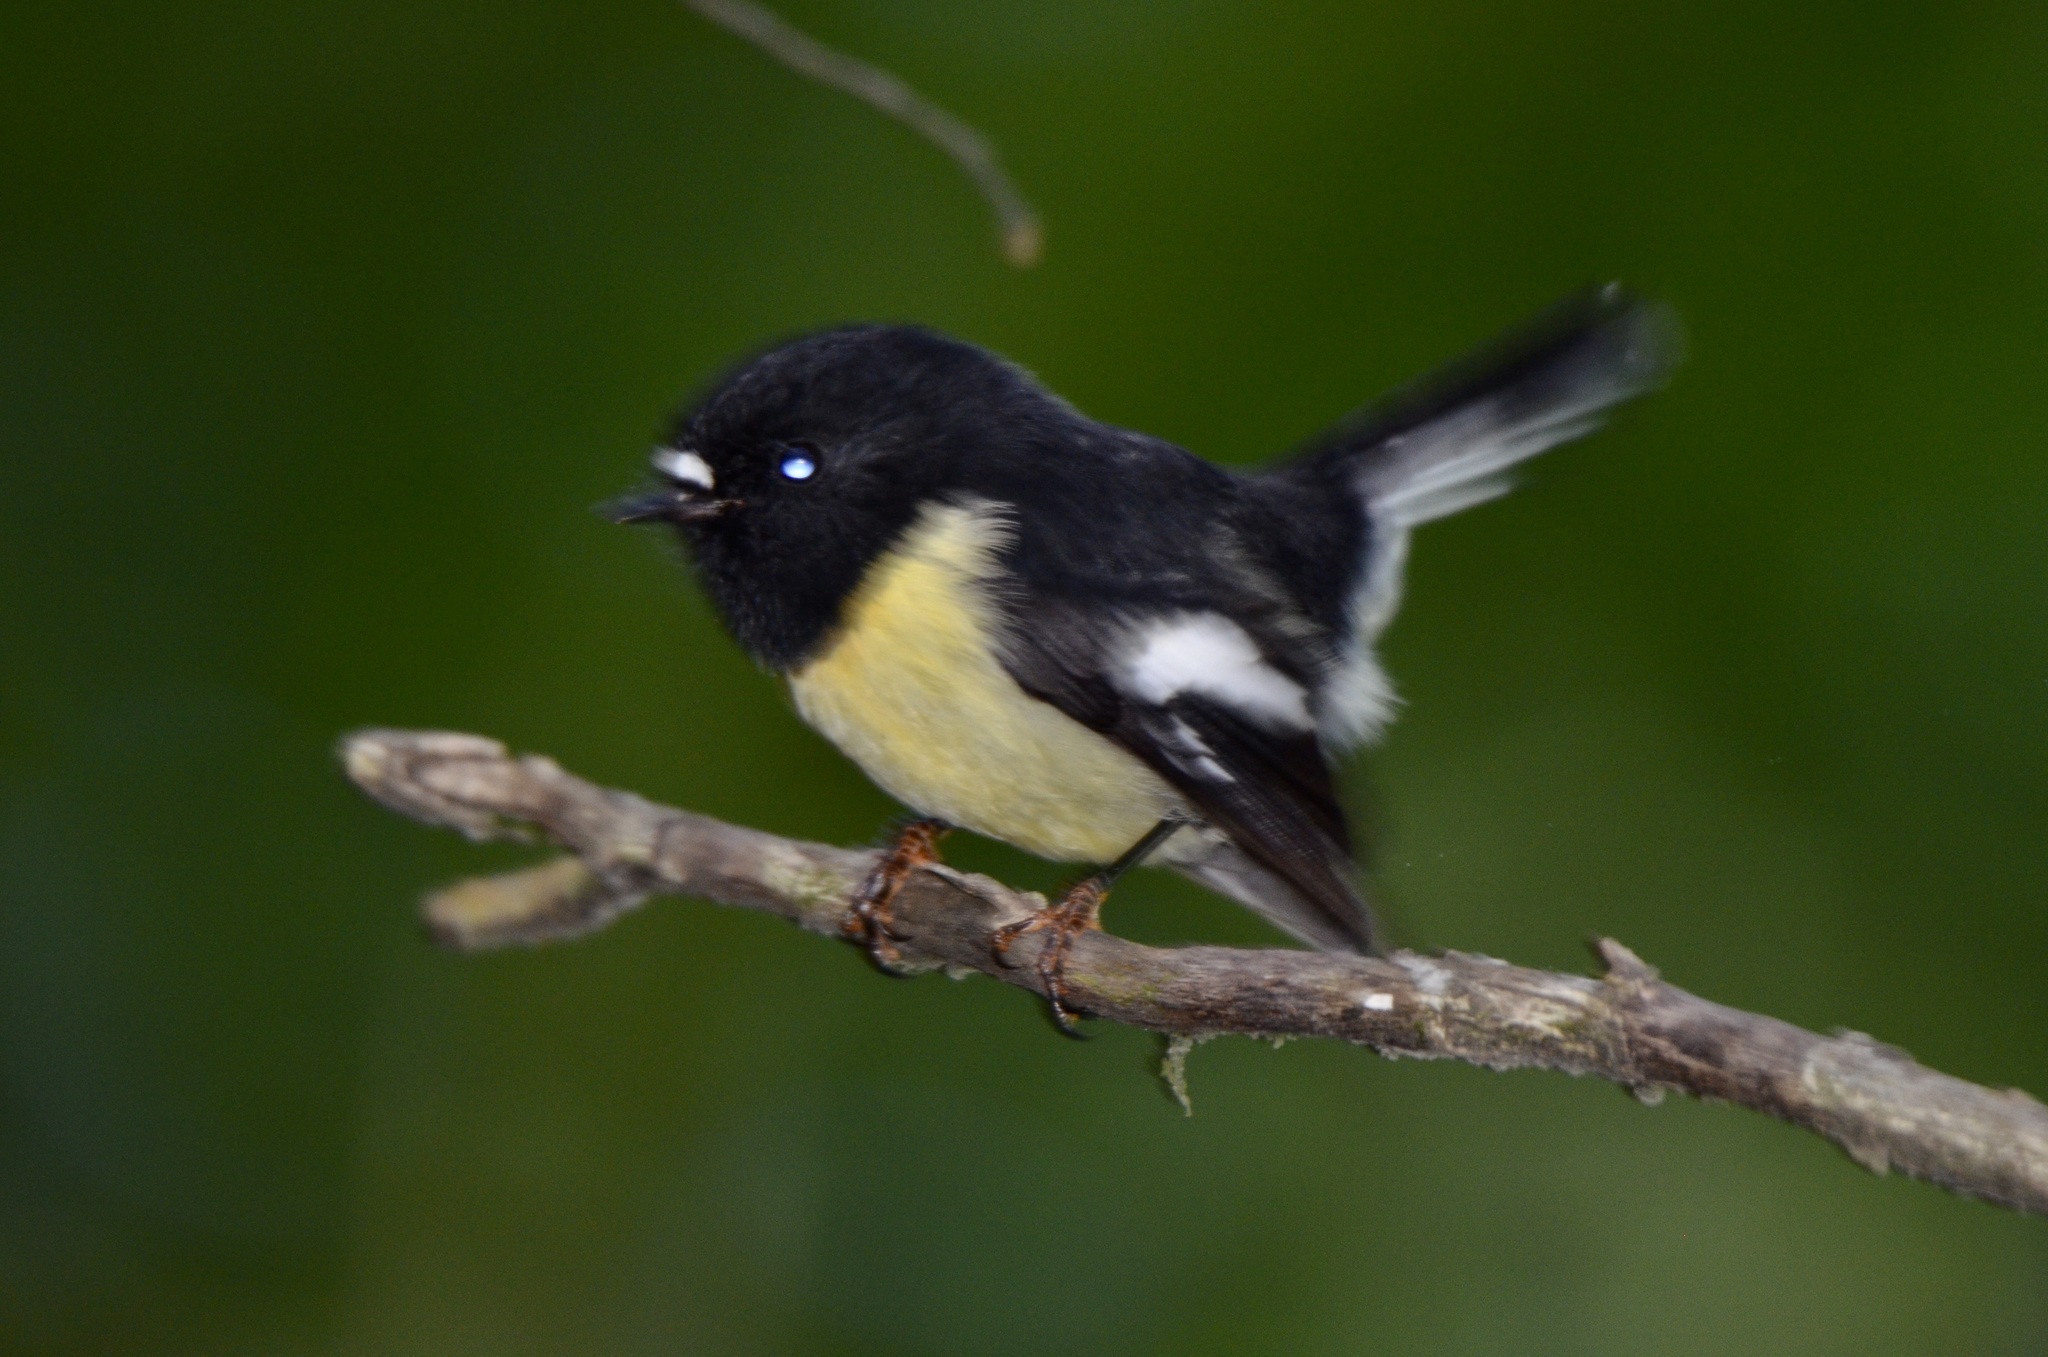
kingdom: Animalia
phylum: Chordata
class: Aves
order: Passeriformes
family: Petroicidae
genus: Petroica
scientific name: Petroica macrocephala
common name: Tomtit
